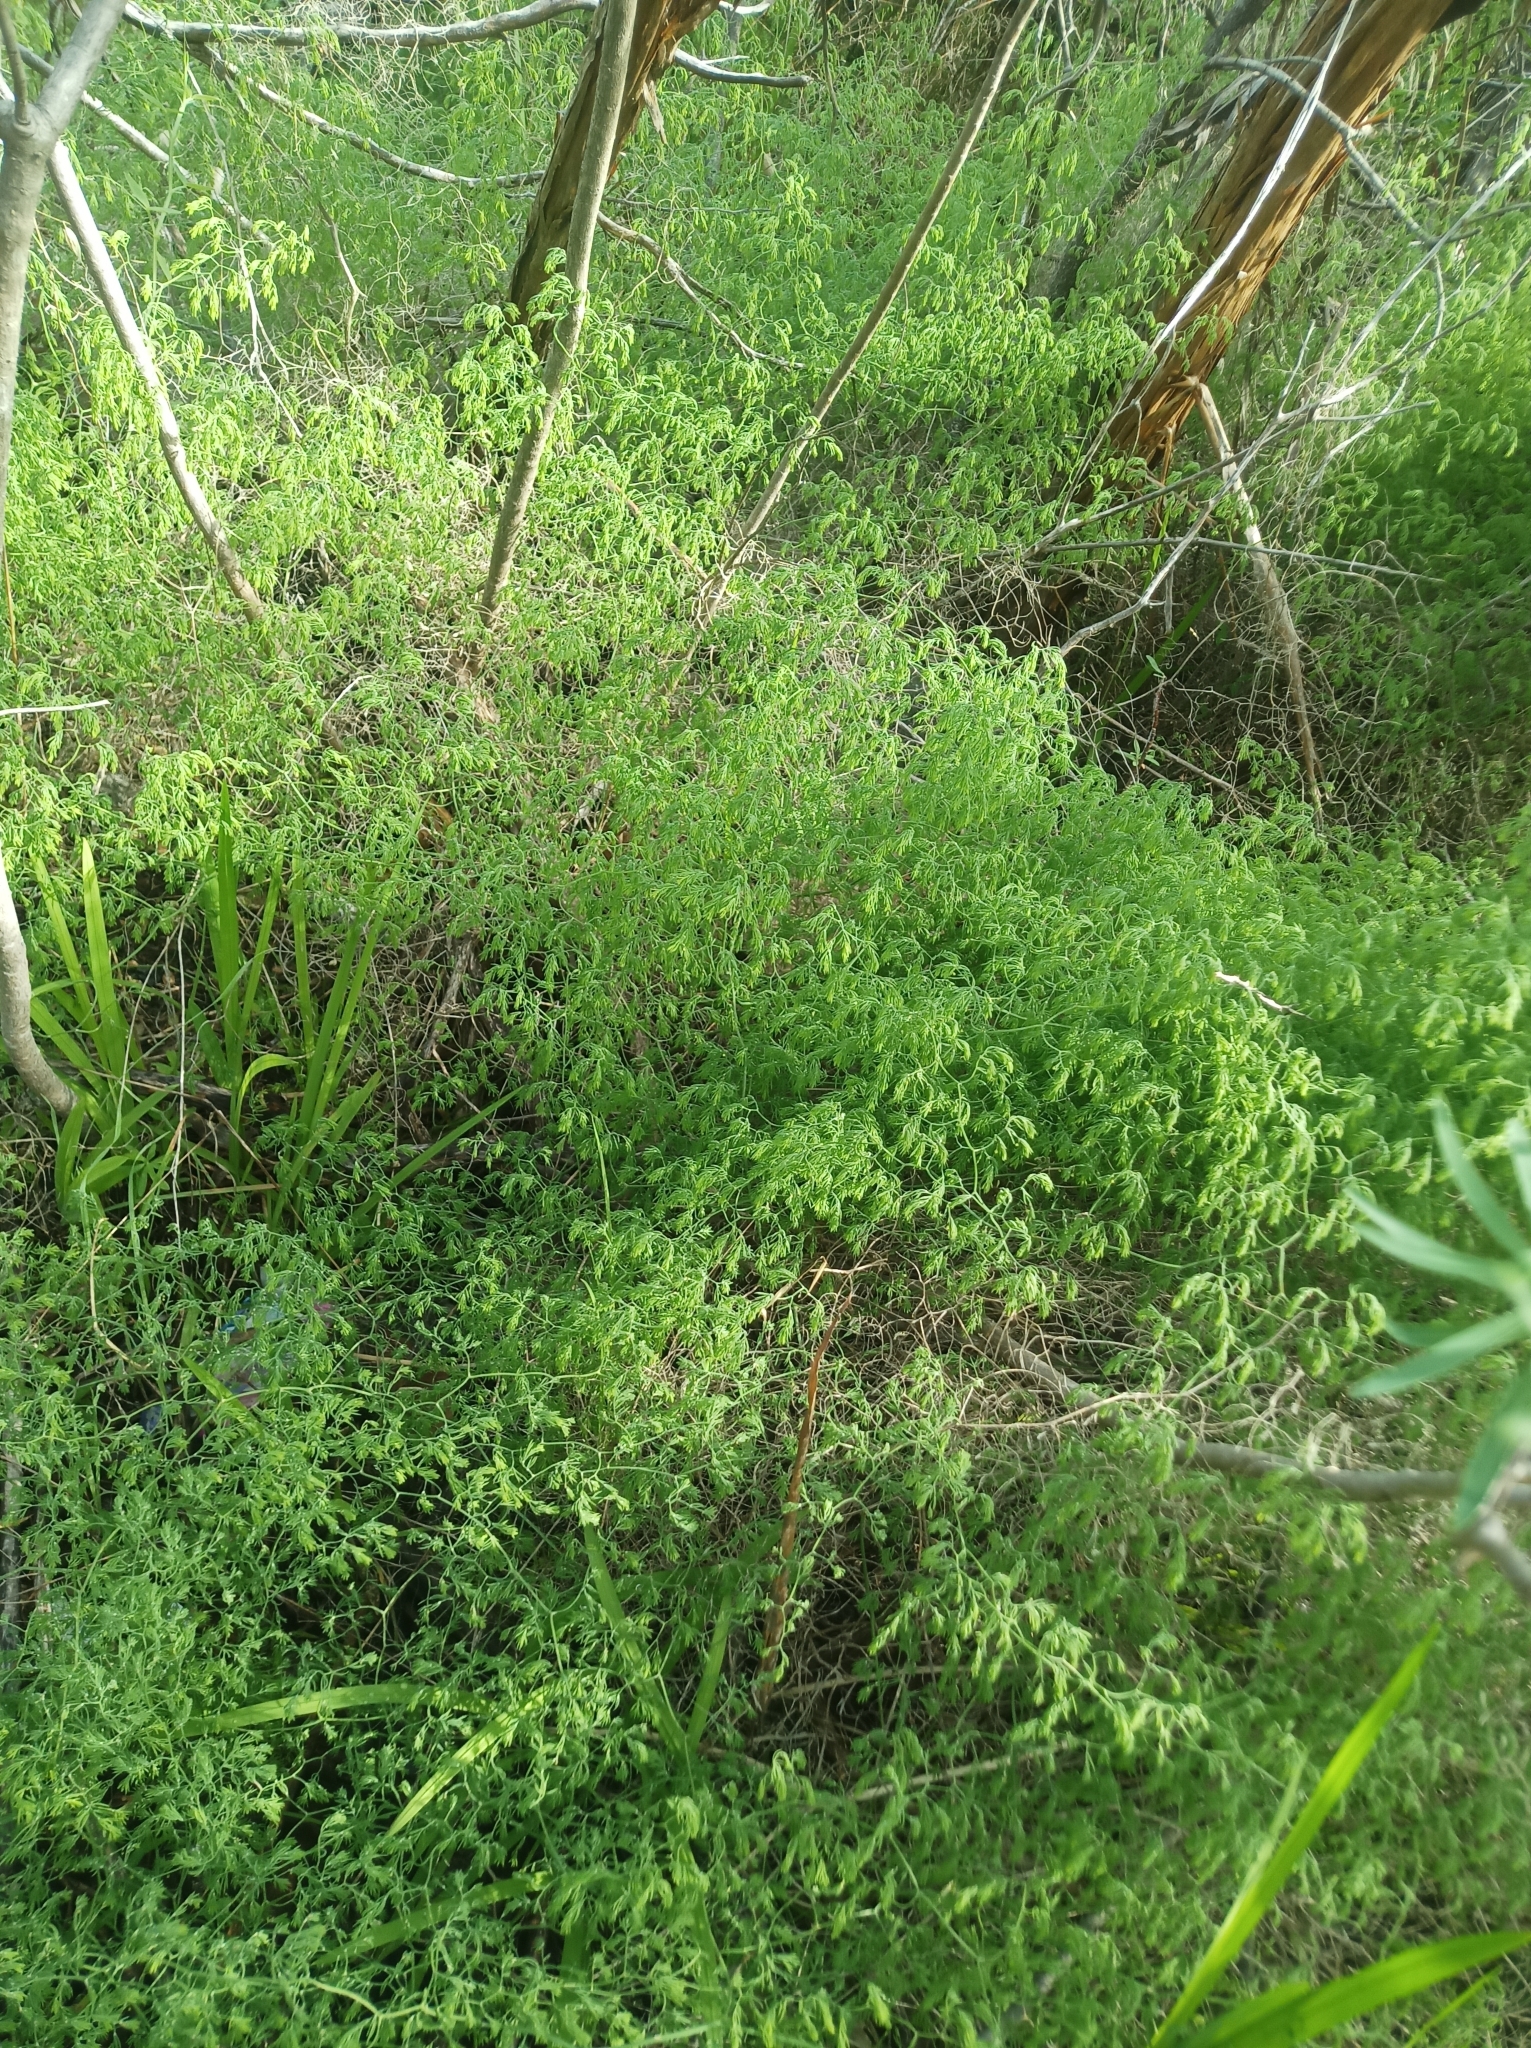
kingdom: Plantae
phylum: Tracheophyta
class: Liliopsida
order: Asparagales
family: Asparagaceae
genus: Asparagus
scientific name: Asparagus declinatus
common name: Bridal-creeper
